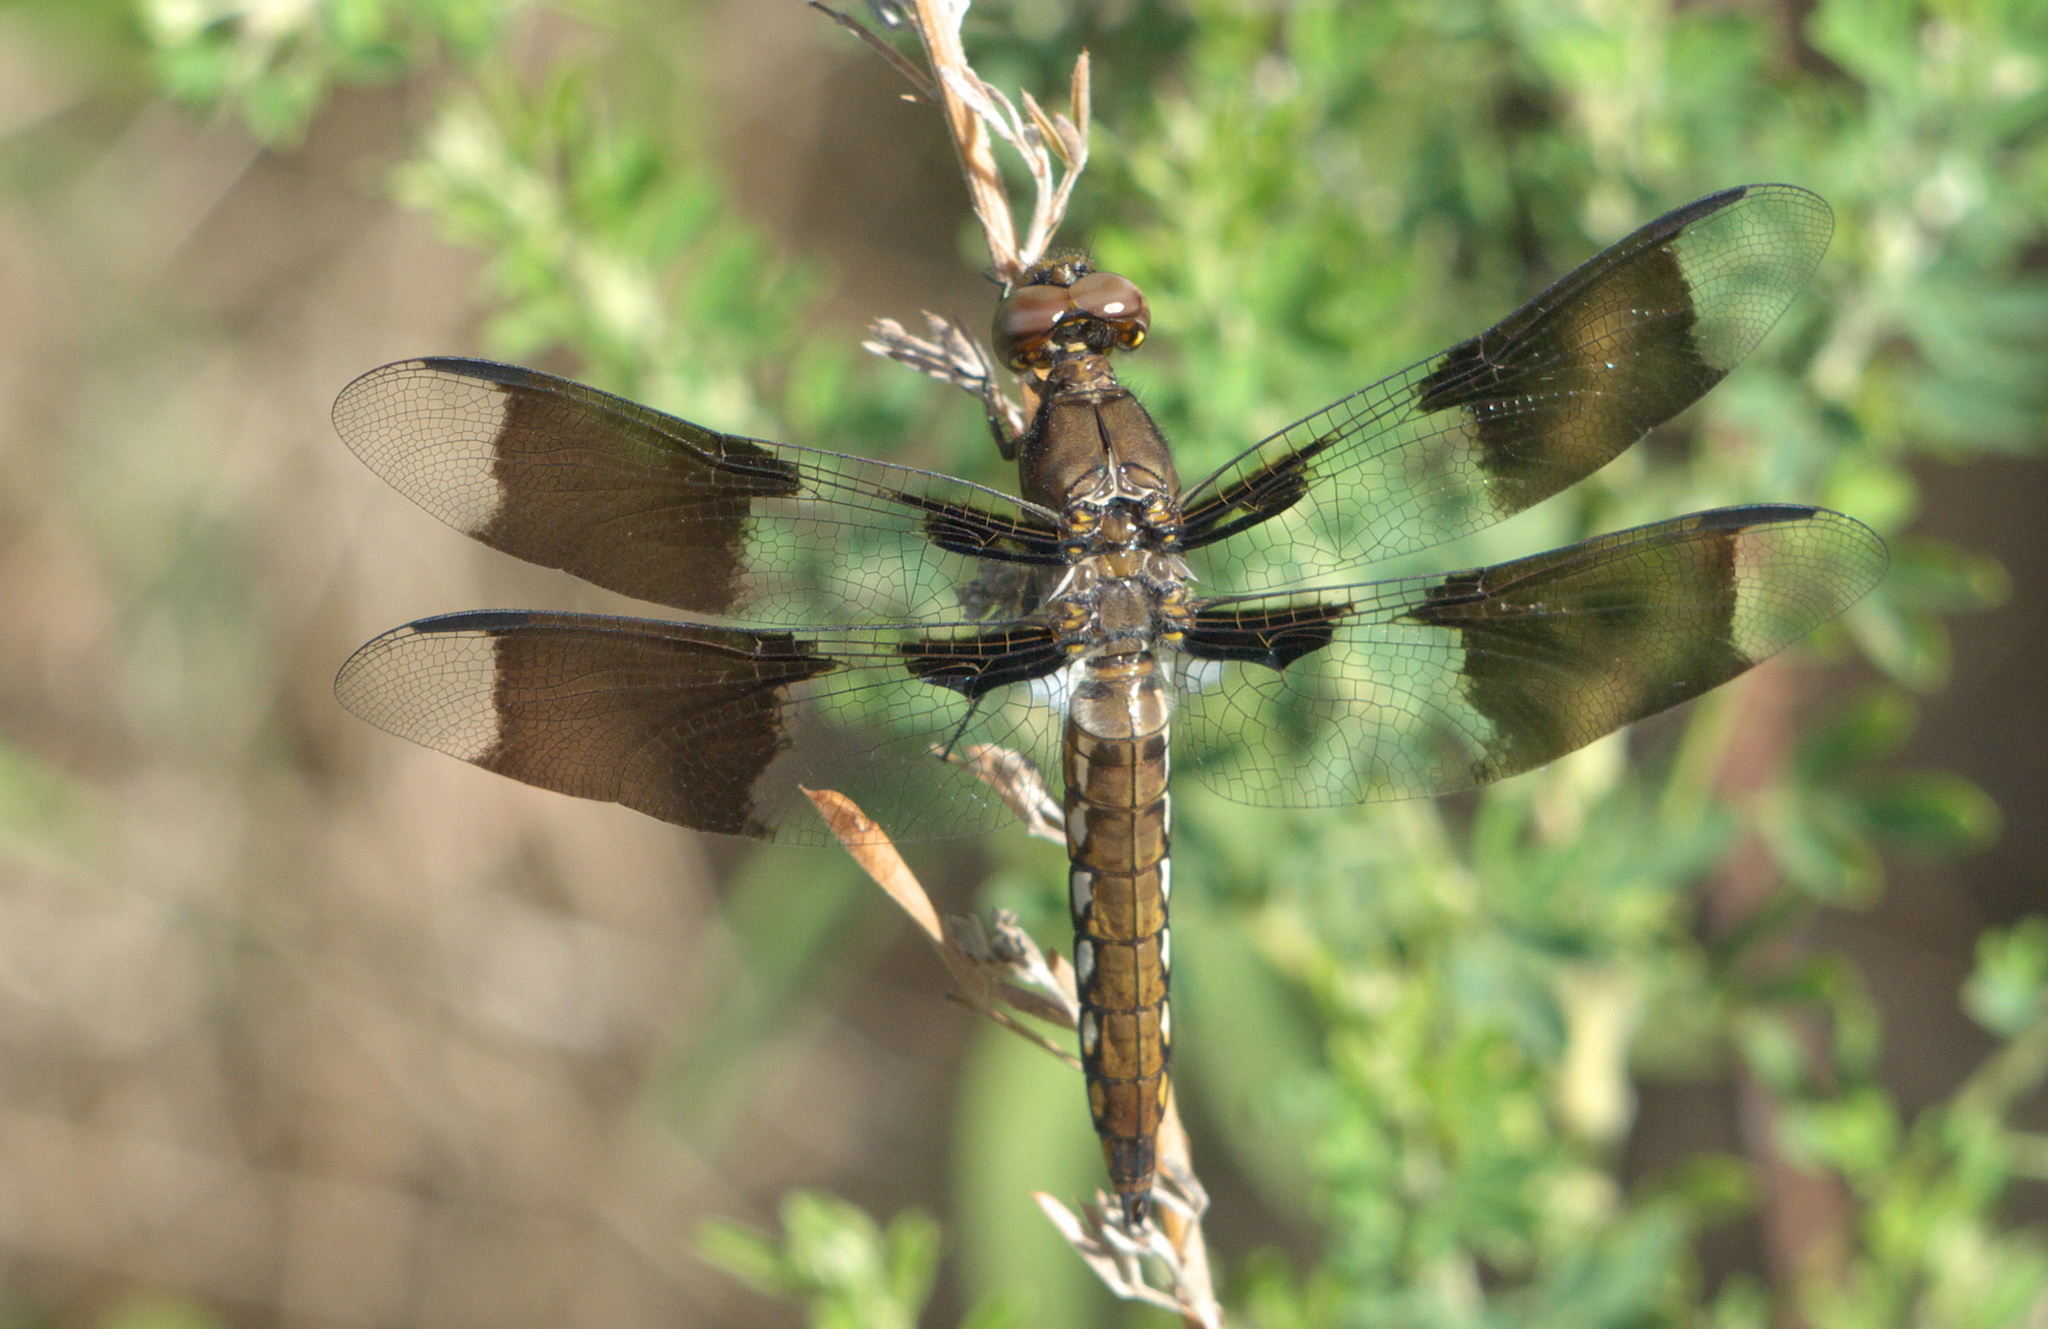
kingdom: Animalia
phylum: Arthropoda
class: Insecta
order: Odonata
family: Libellulidae
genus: Plathemis
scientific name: Plathemis lydia
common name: Common whitetail
